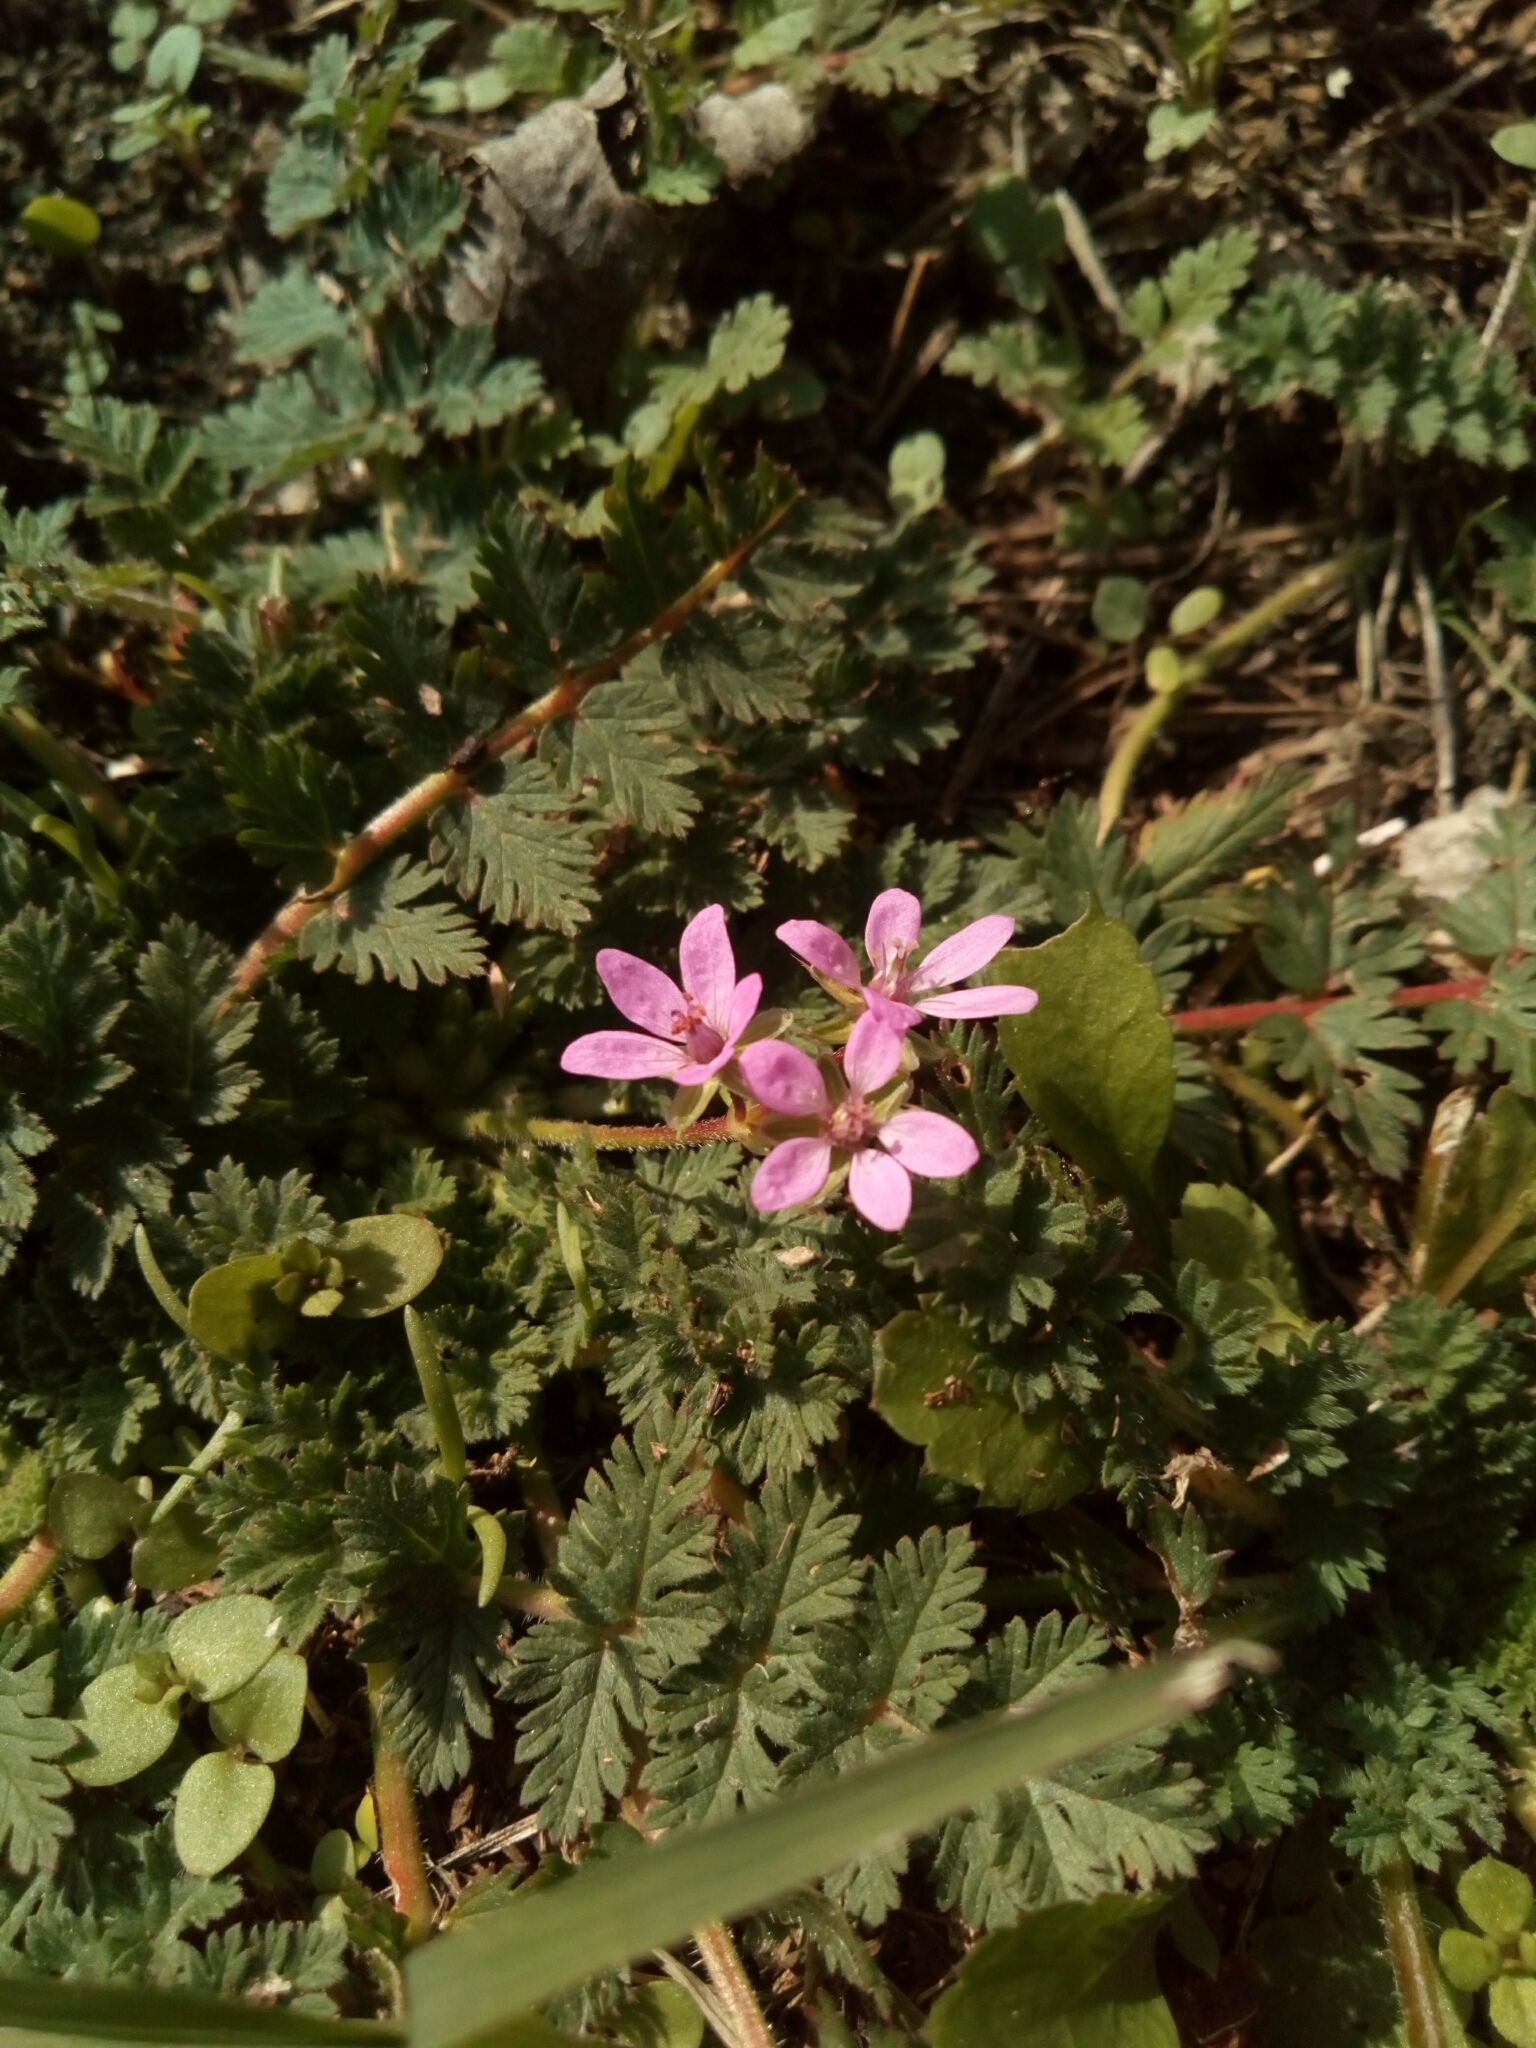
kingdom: Plantae
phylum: Tracheophyta
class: Magnoliopsida
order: Geraniales
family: Geraniaceae
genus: Erodium
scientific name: Erodium cicutarium
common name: Common stork's-bill
